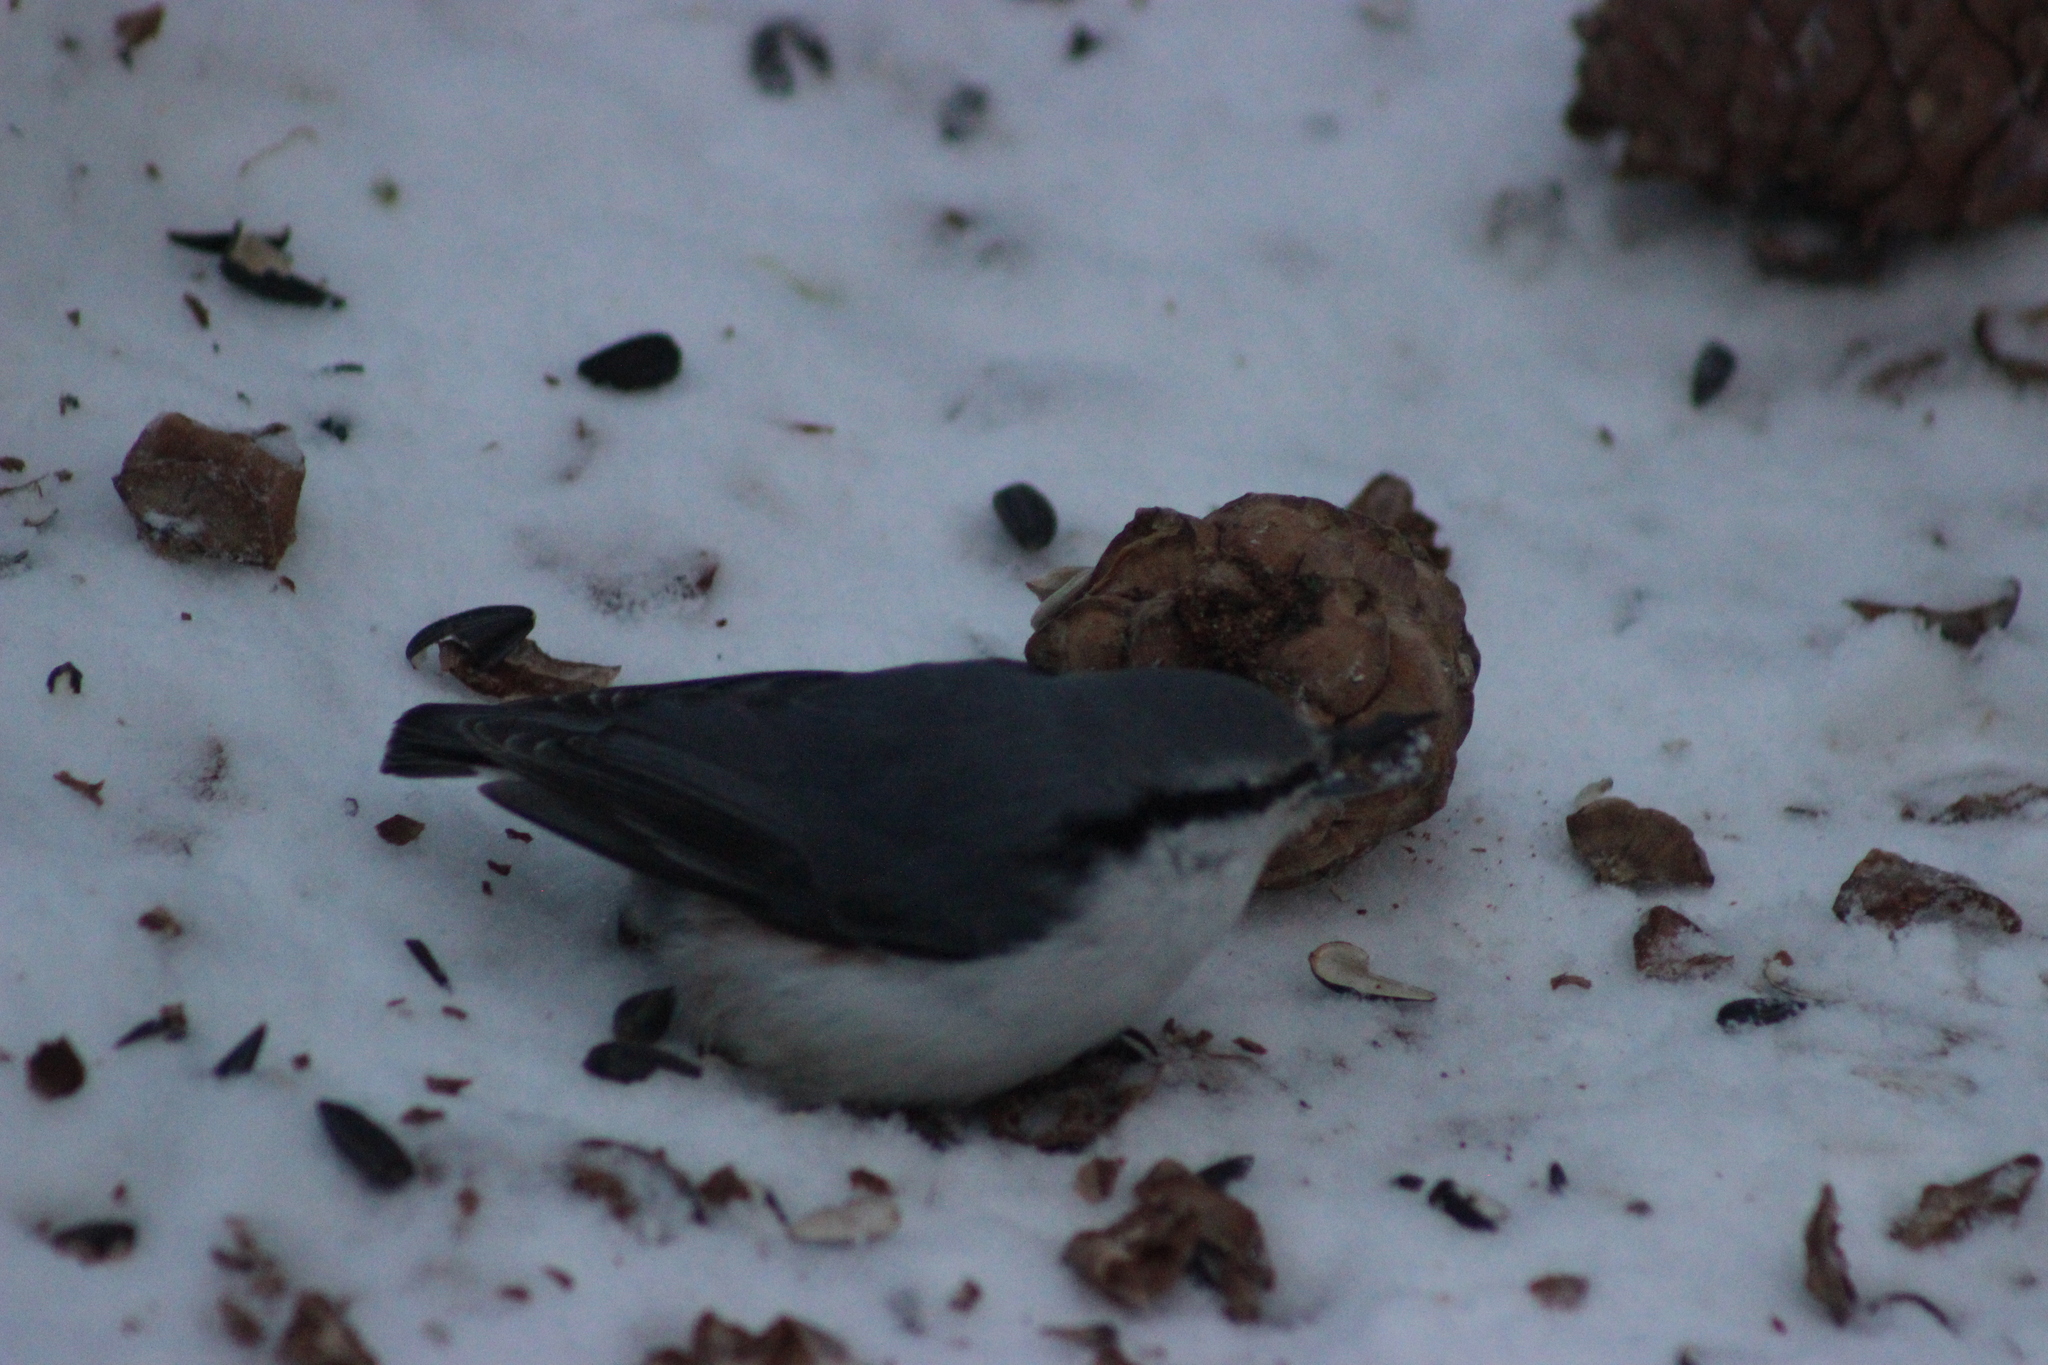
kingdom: Animalia
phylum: Chordata
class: Aves
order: Passeriformes
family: Sittidae
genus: Sitta
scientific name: Sitta europaea
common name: Eurasian nuthatch
